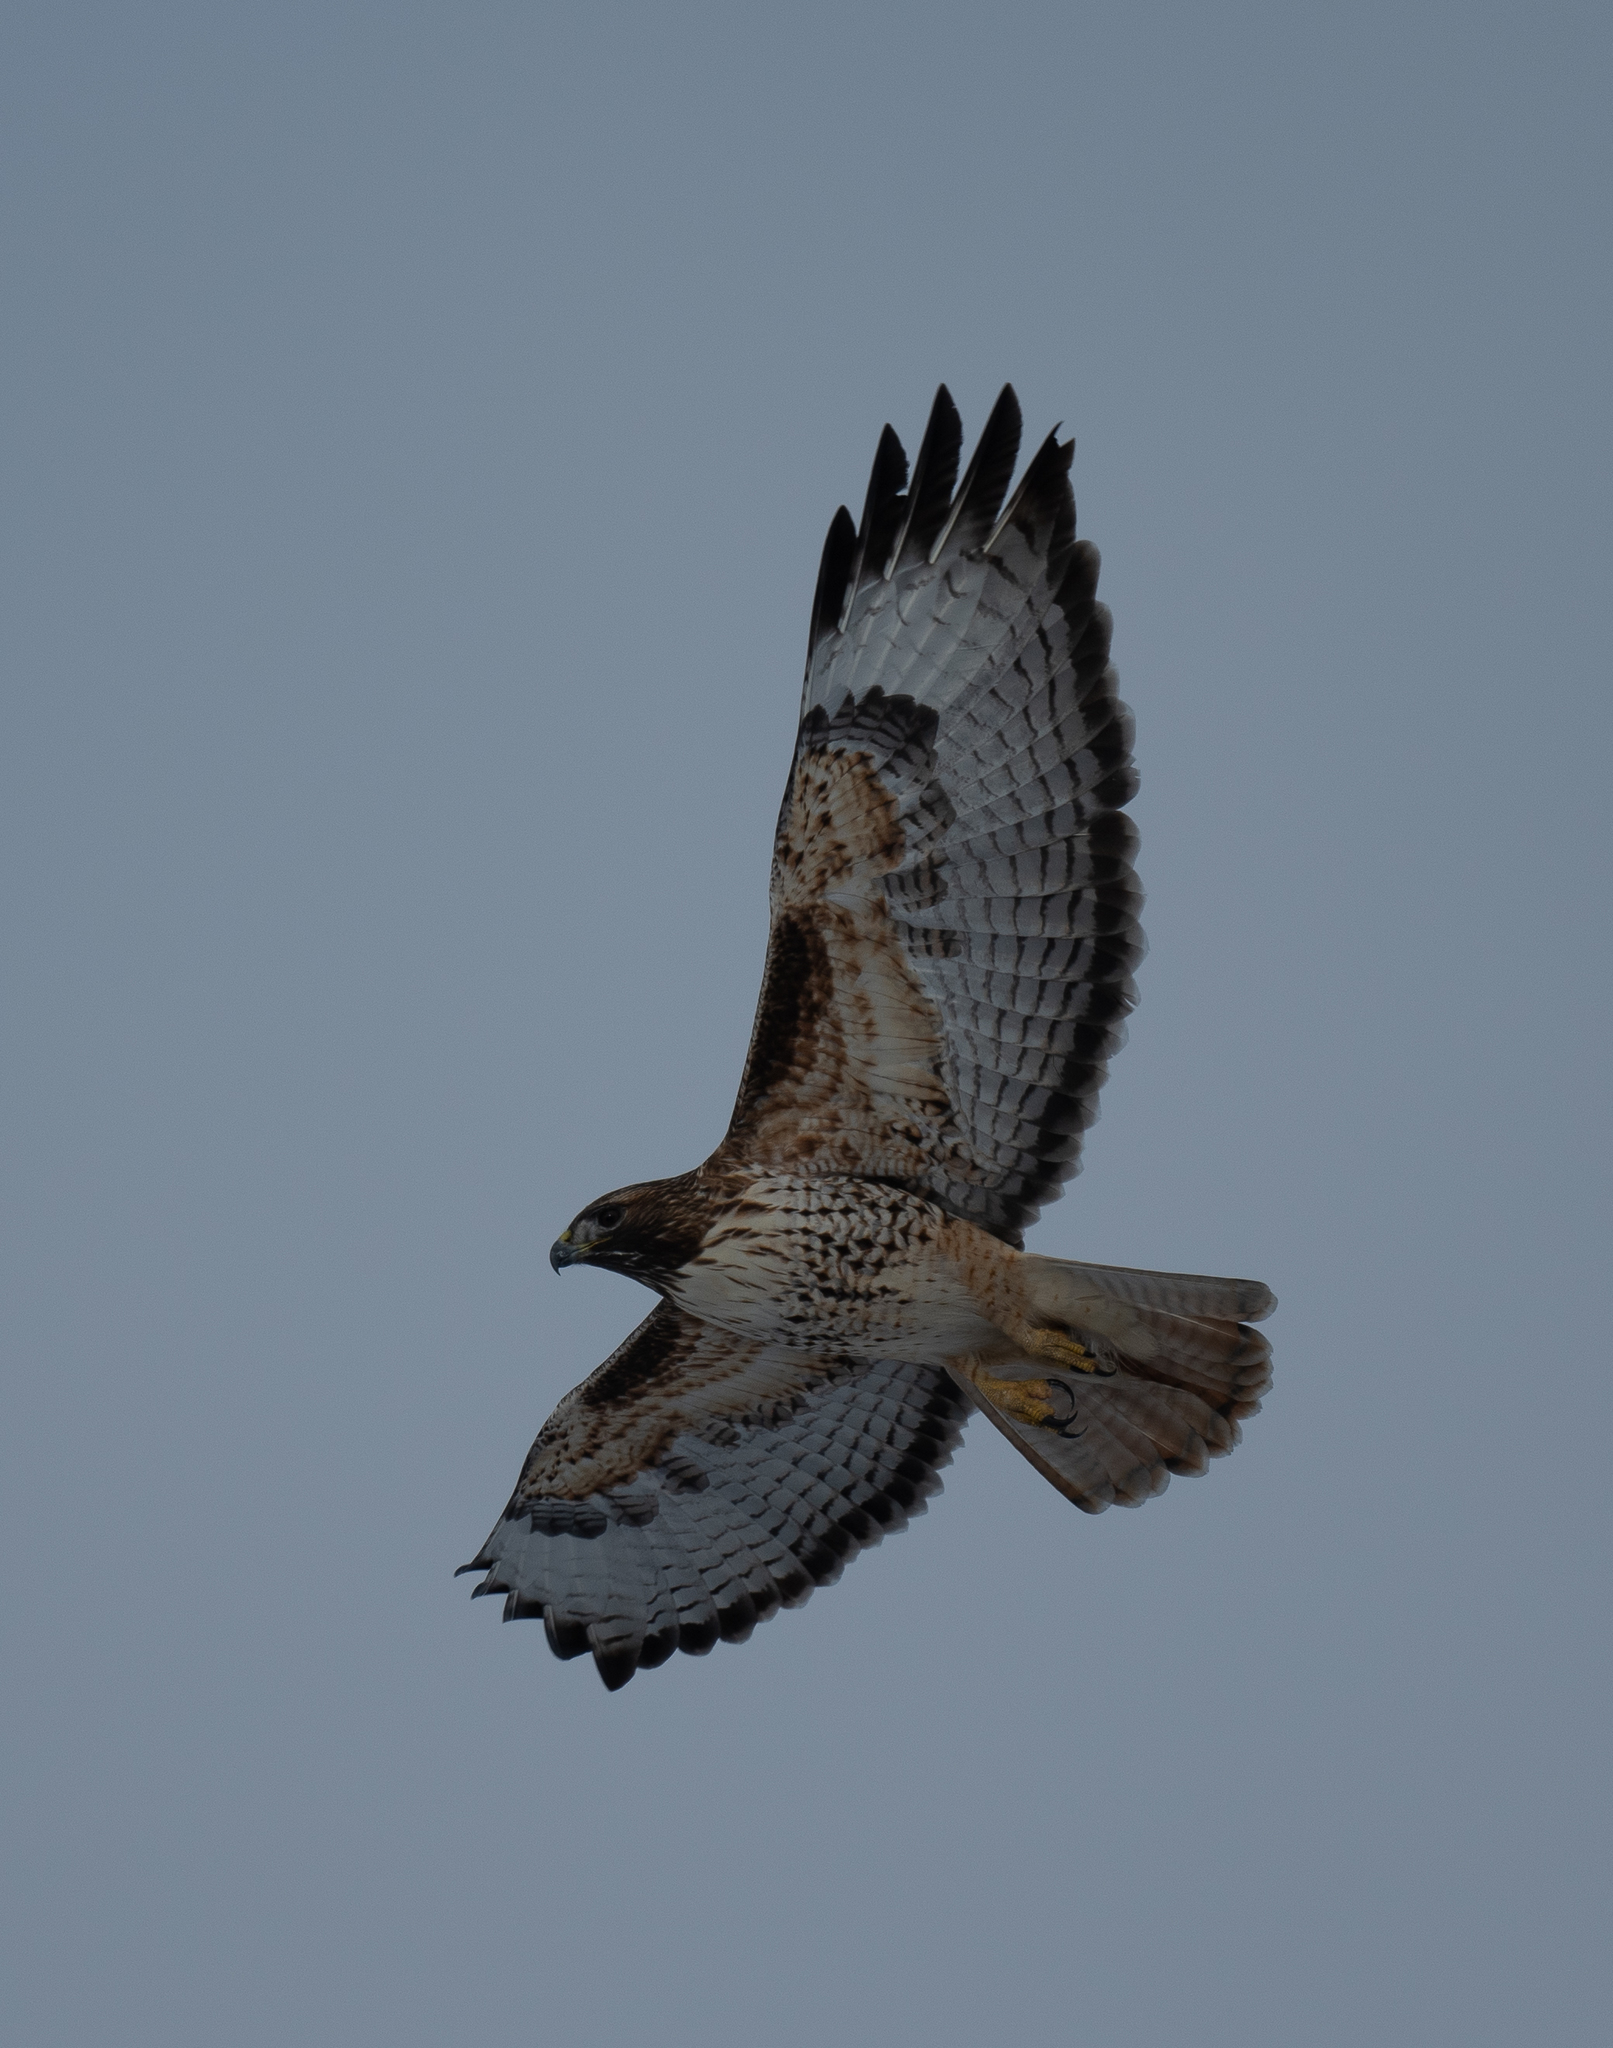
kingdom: Animalia
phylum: Chordata
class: Aves
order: Accipitriformes
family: Accipitridae
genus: Buteo
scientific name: Buteo jamaicensis
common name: Red-tailed hawk
